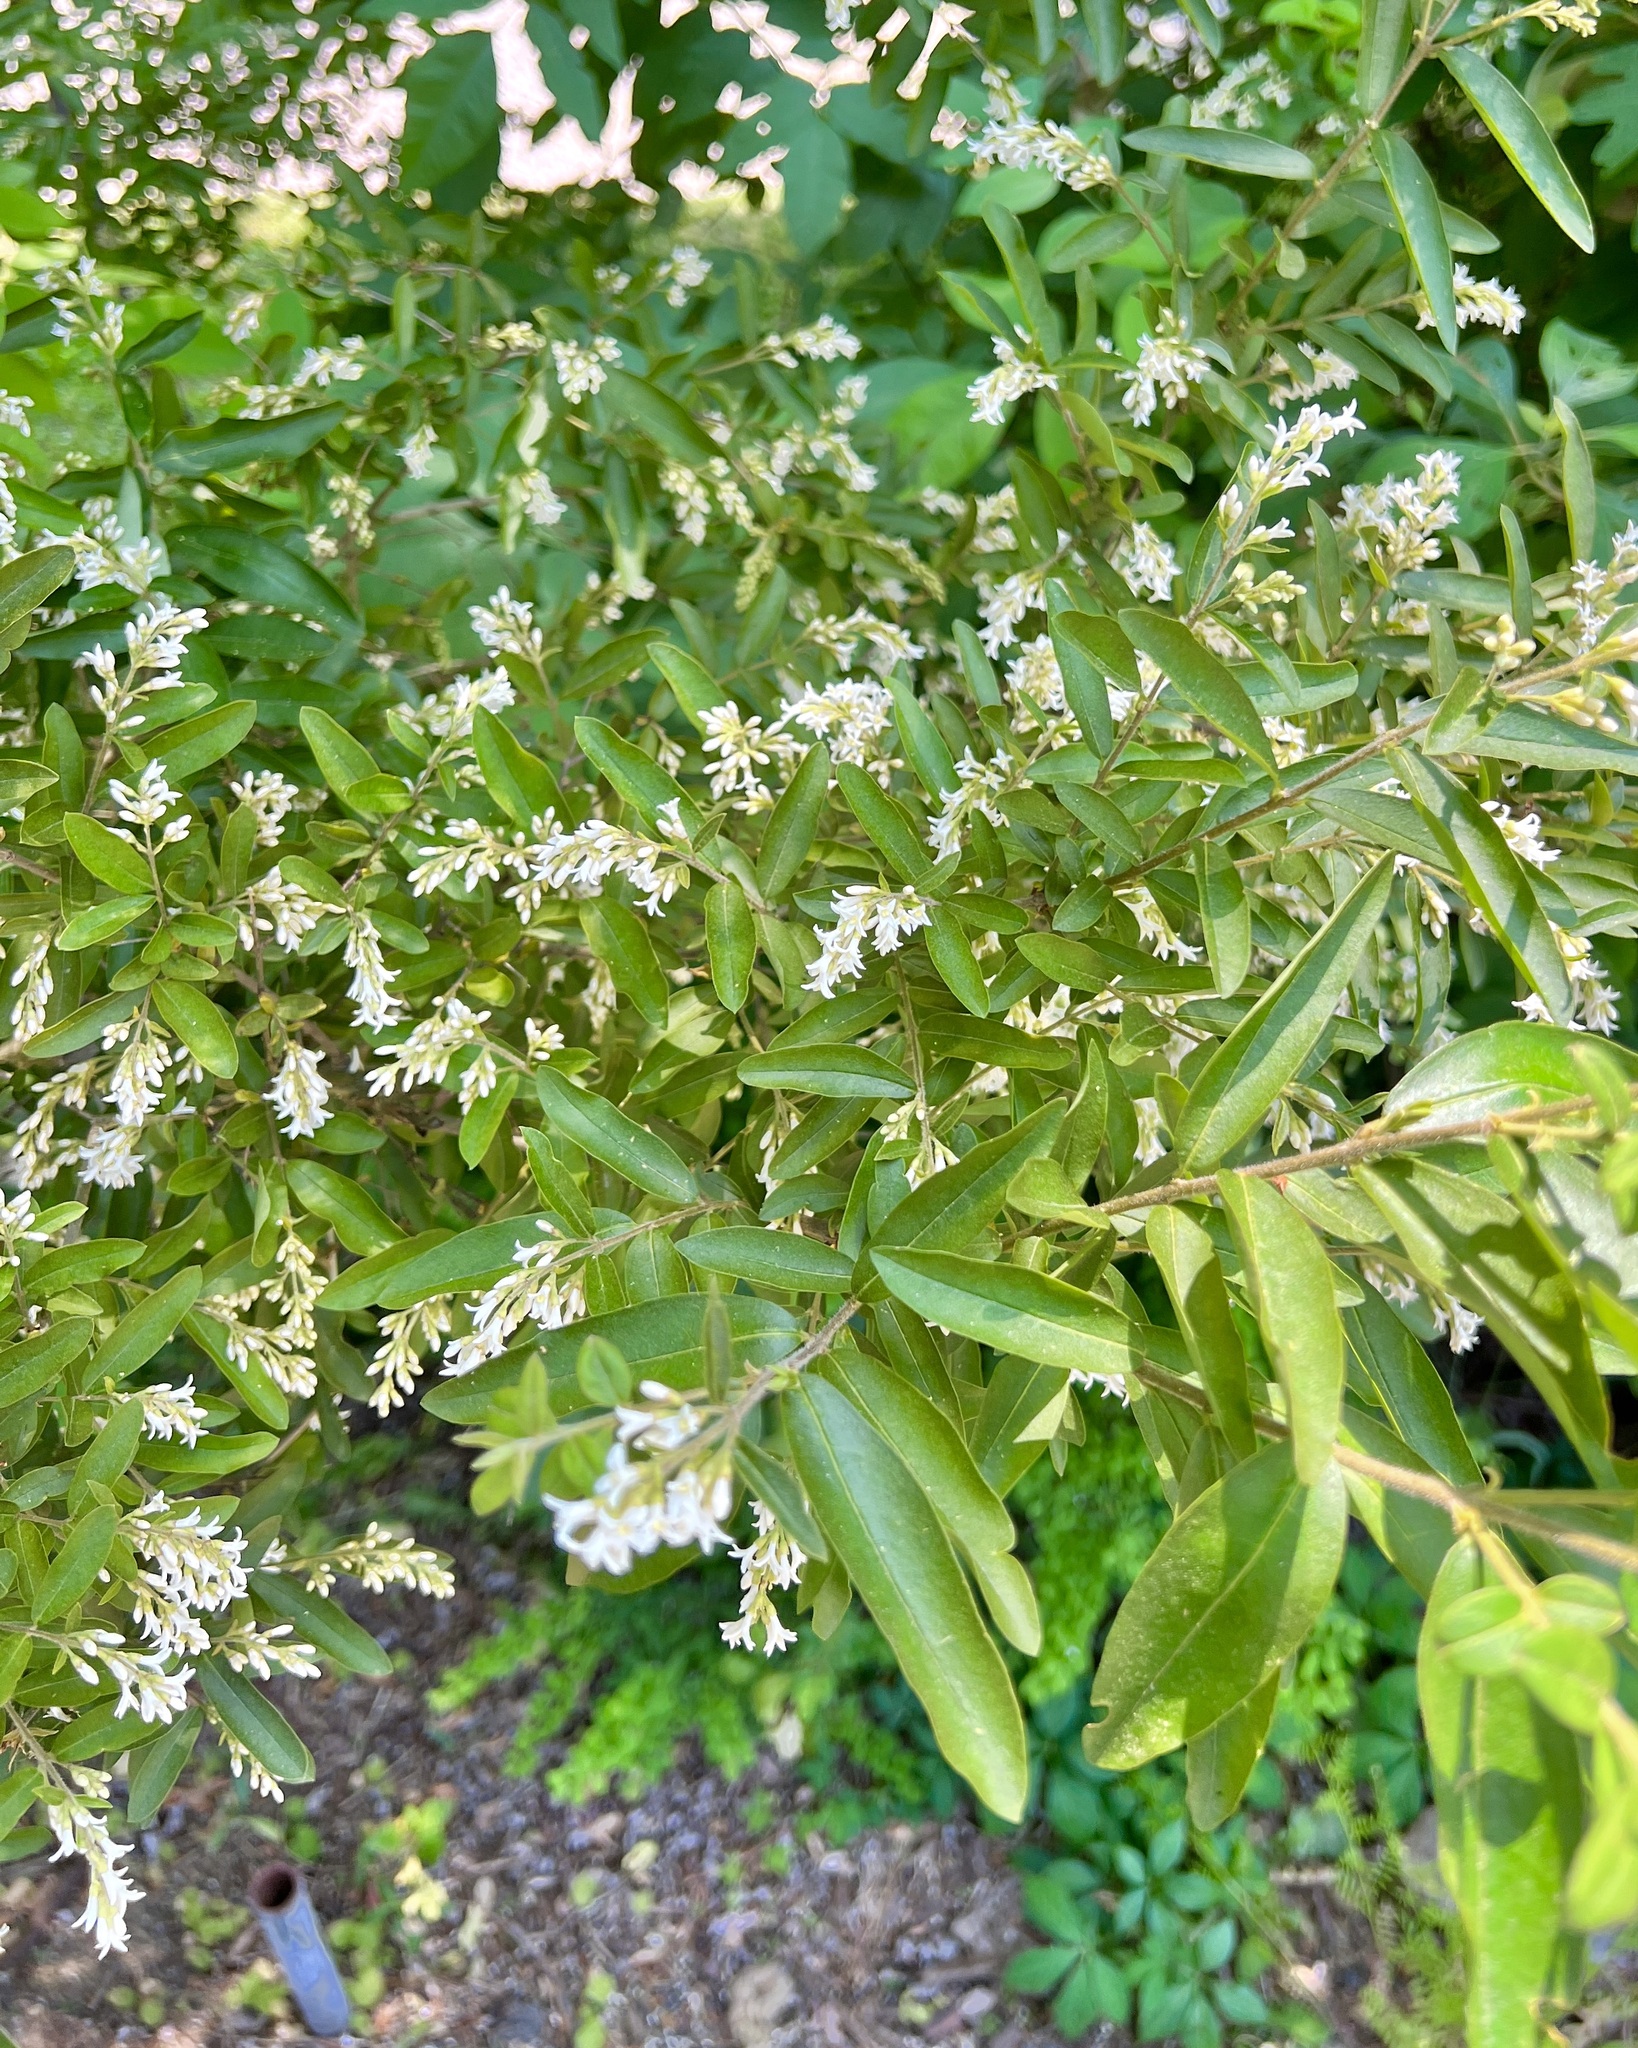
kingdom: Plantae
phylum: Tracheophyta
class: Magnoliopsida
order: Lamiales
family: Oleaceae
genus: Ligustrum
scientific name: Ligustrum obtusifolium
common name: Border privet
